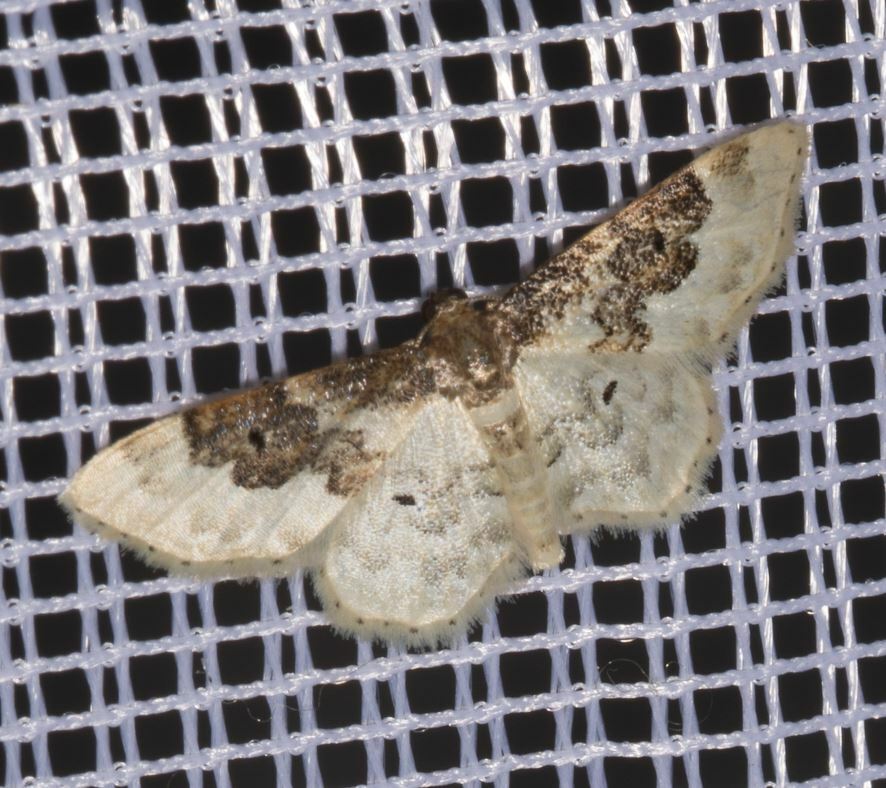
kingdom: Animalia
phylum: Arthropoda
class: Insecta
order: Lepidoptera
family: Geometridae
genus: Idaea
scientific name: Idaea rusticata
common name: Least carpet
